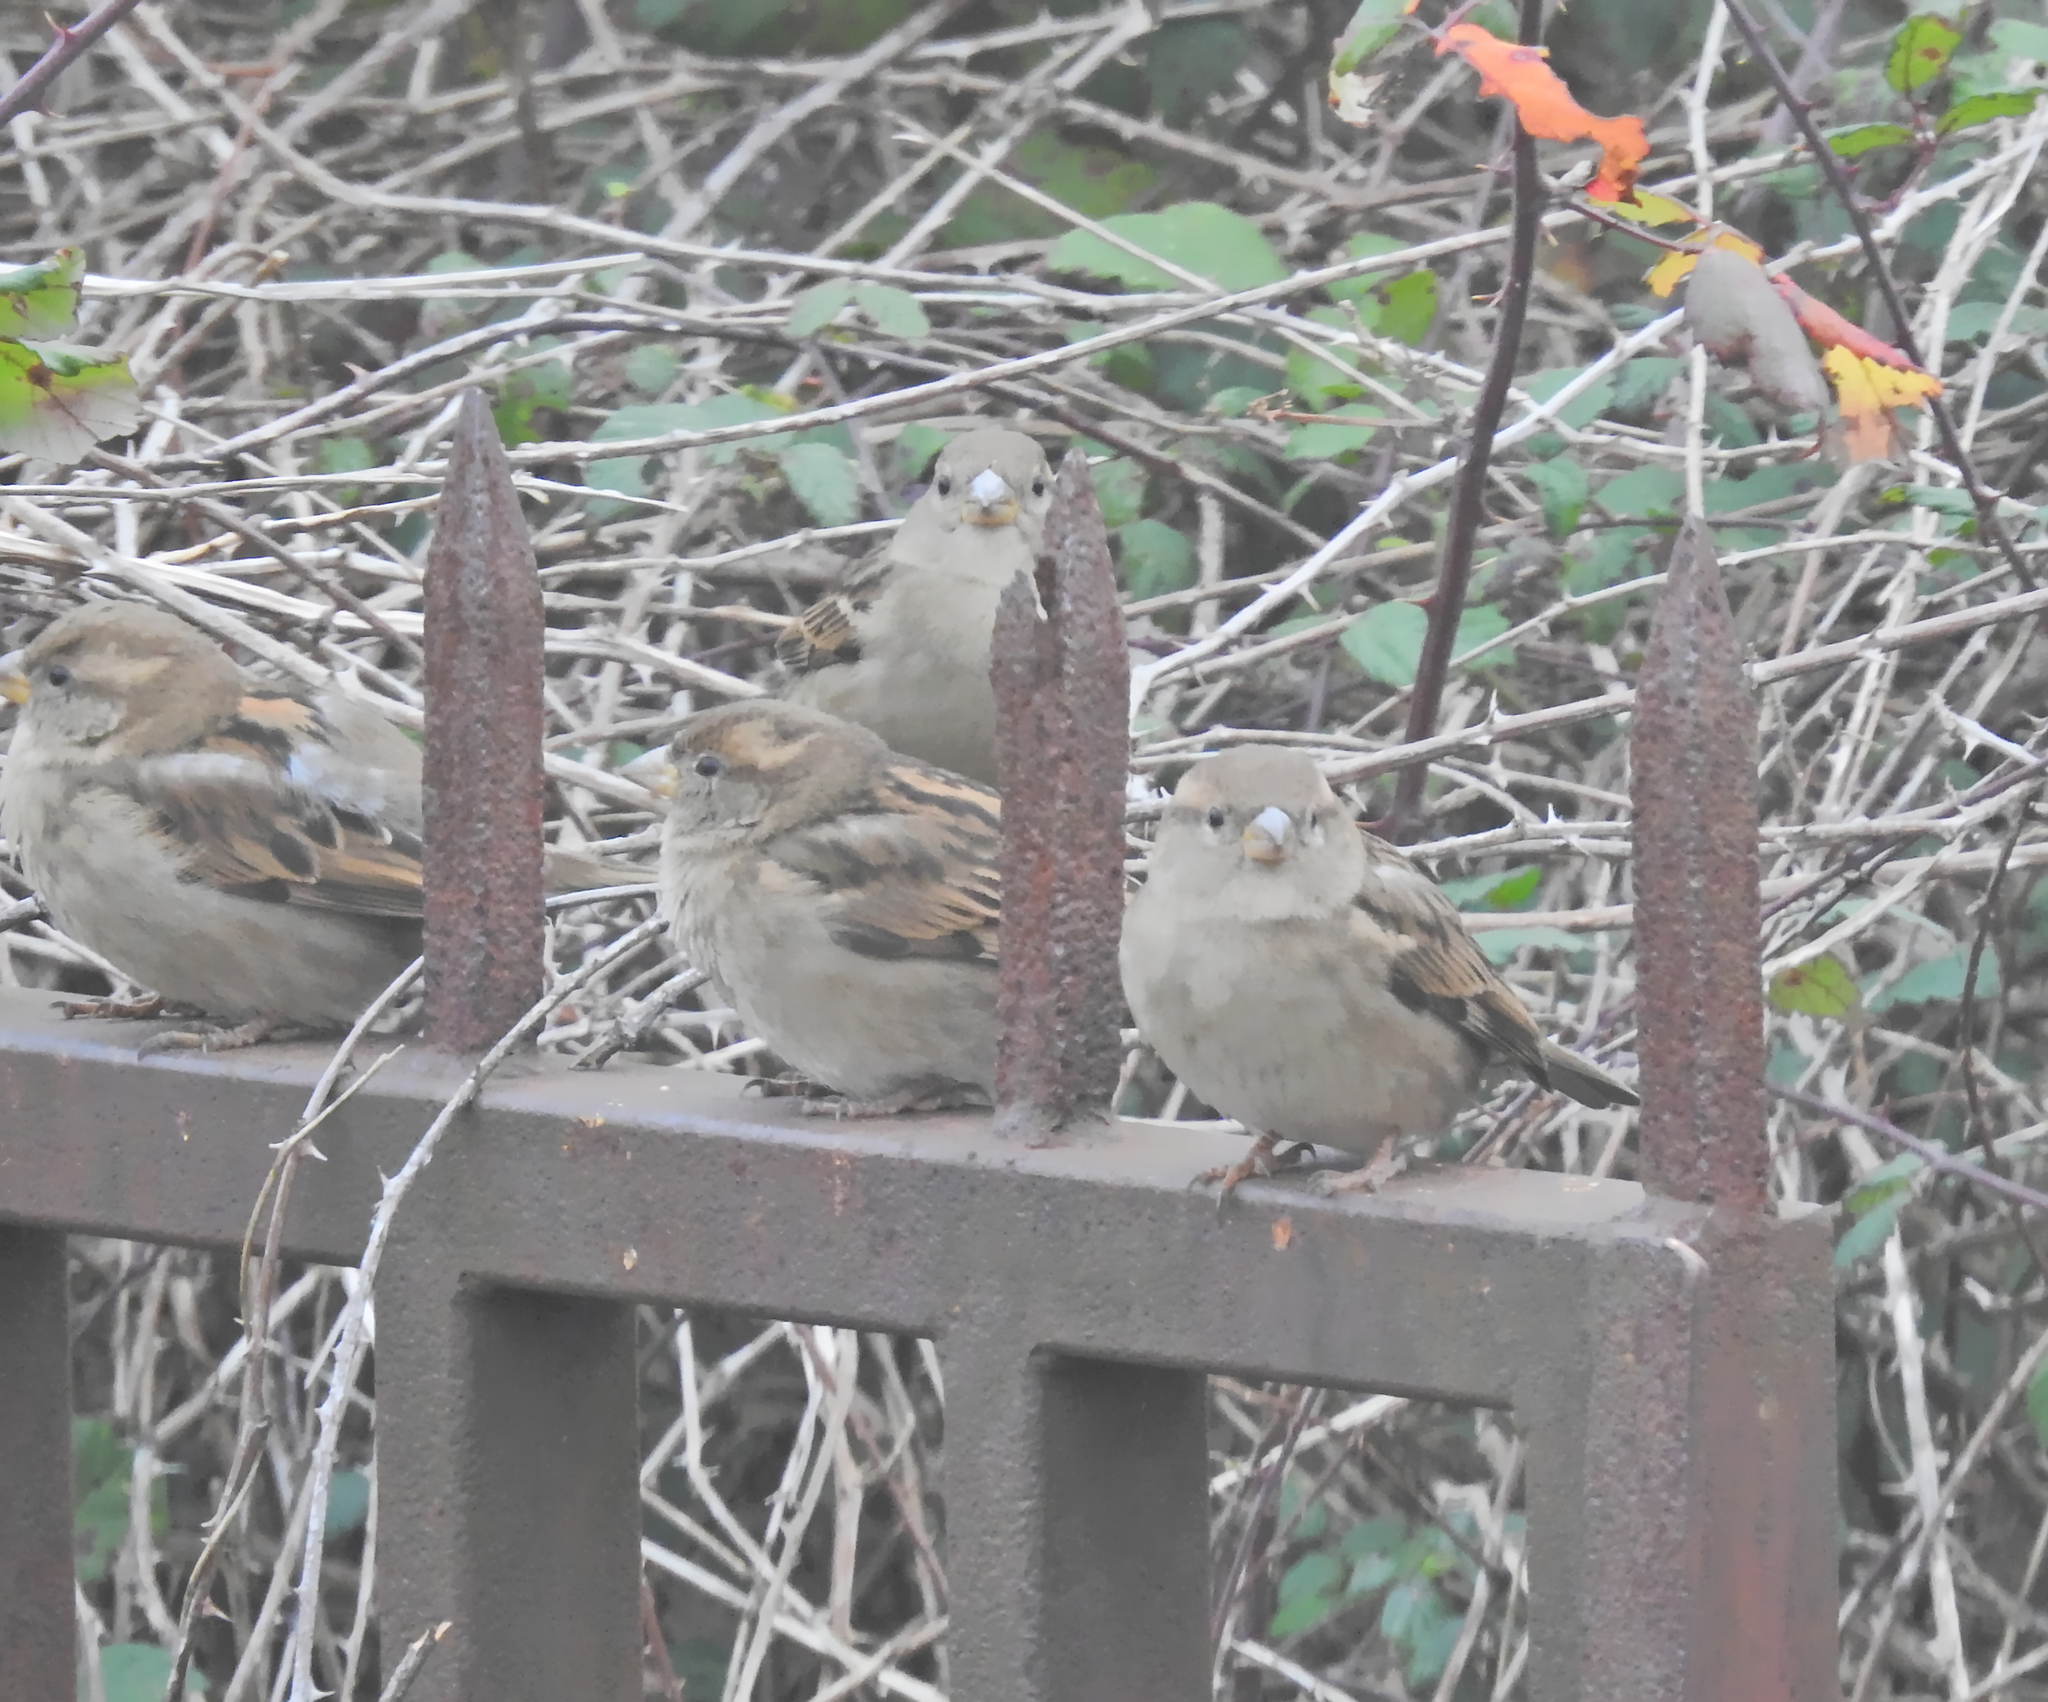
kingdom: Animalia
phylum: Chordata
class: Aves
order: Passeriformes
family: Passeridae
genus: Passer
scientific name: Passer domesticus
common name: House sparrow
